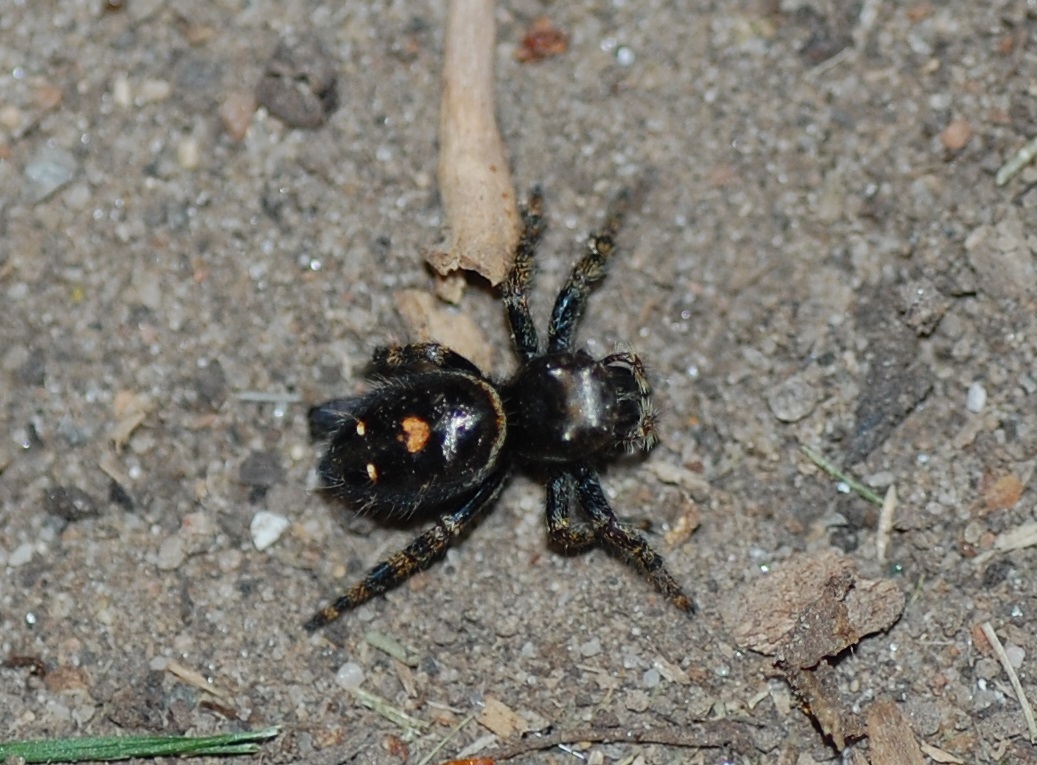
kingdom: Animalia
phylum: Arthropoda
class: Arachnida
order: Araneae
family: Salticidae
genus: Phidippus
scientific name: Phidippus audax
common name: Bold jumper
